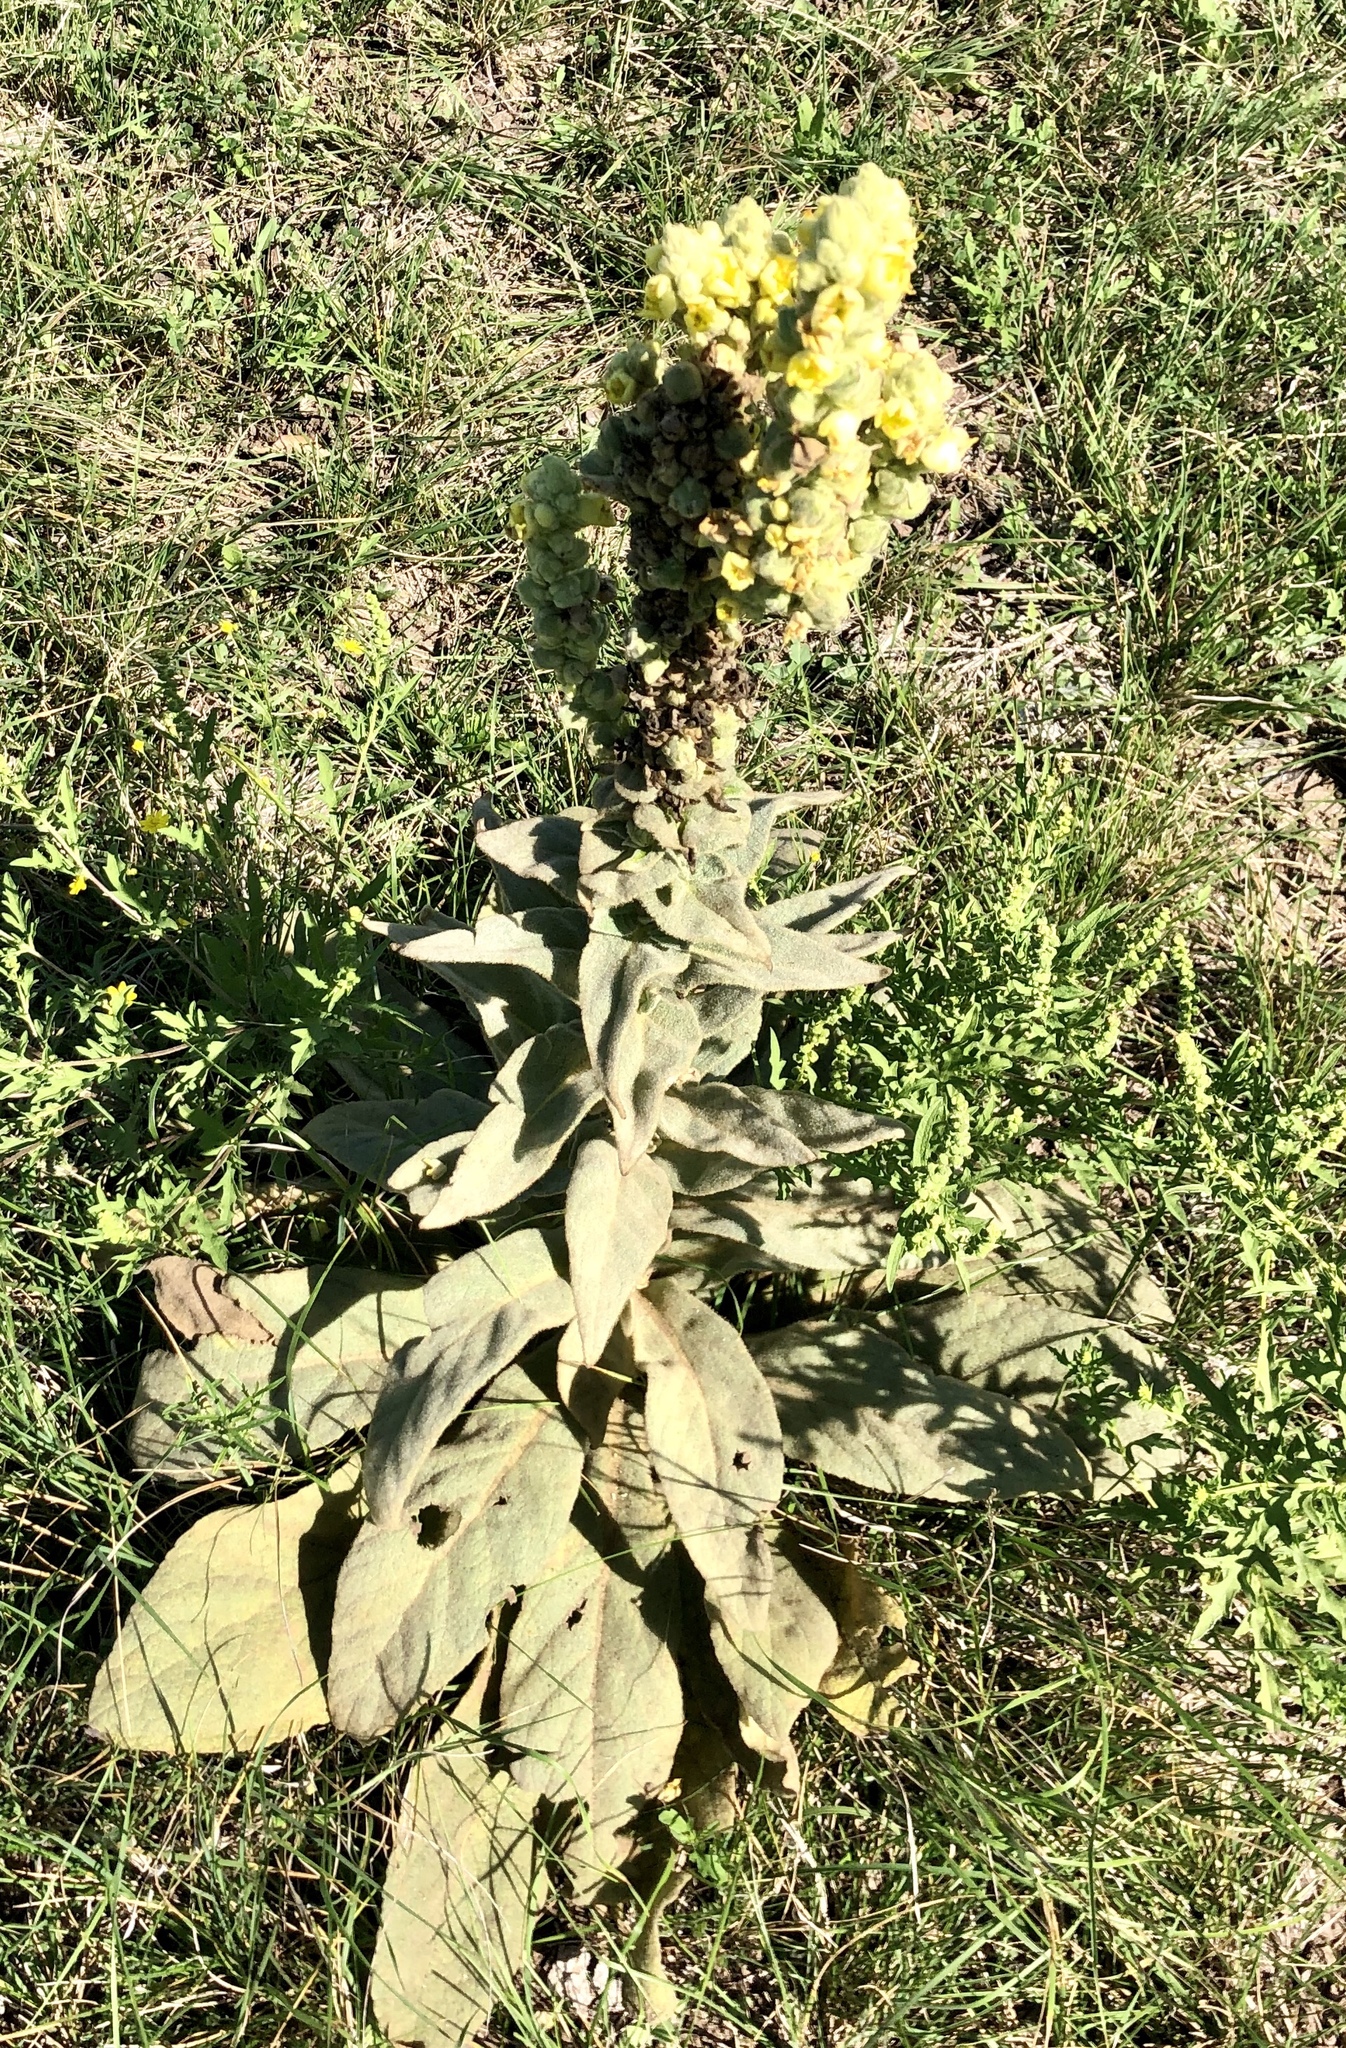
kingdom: Plantae
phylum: Tracheophyta
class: Magnoliopsida
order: Lamiales
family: Scrophulariaceae
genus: Verbascum
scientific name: Verbascum thapsus
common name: Common mullein
